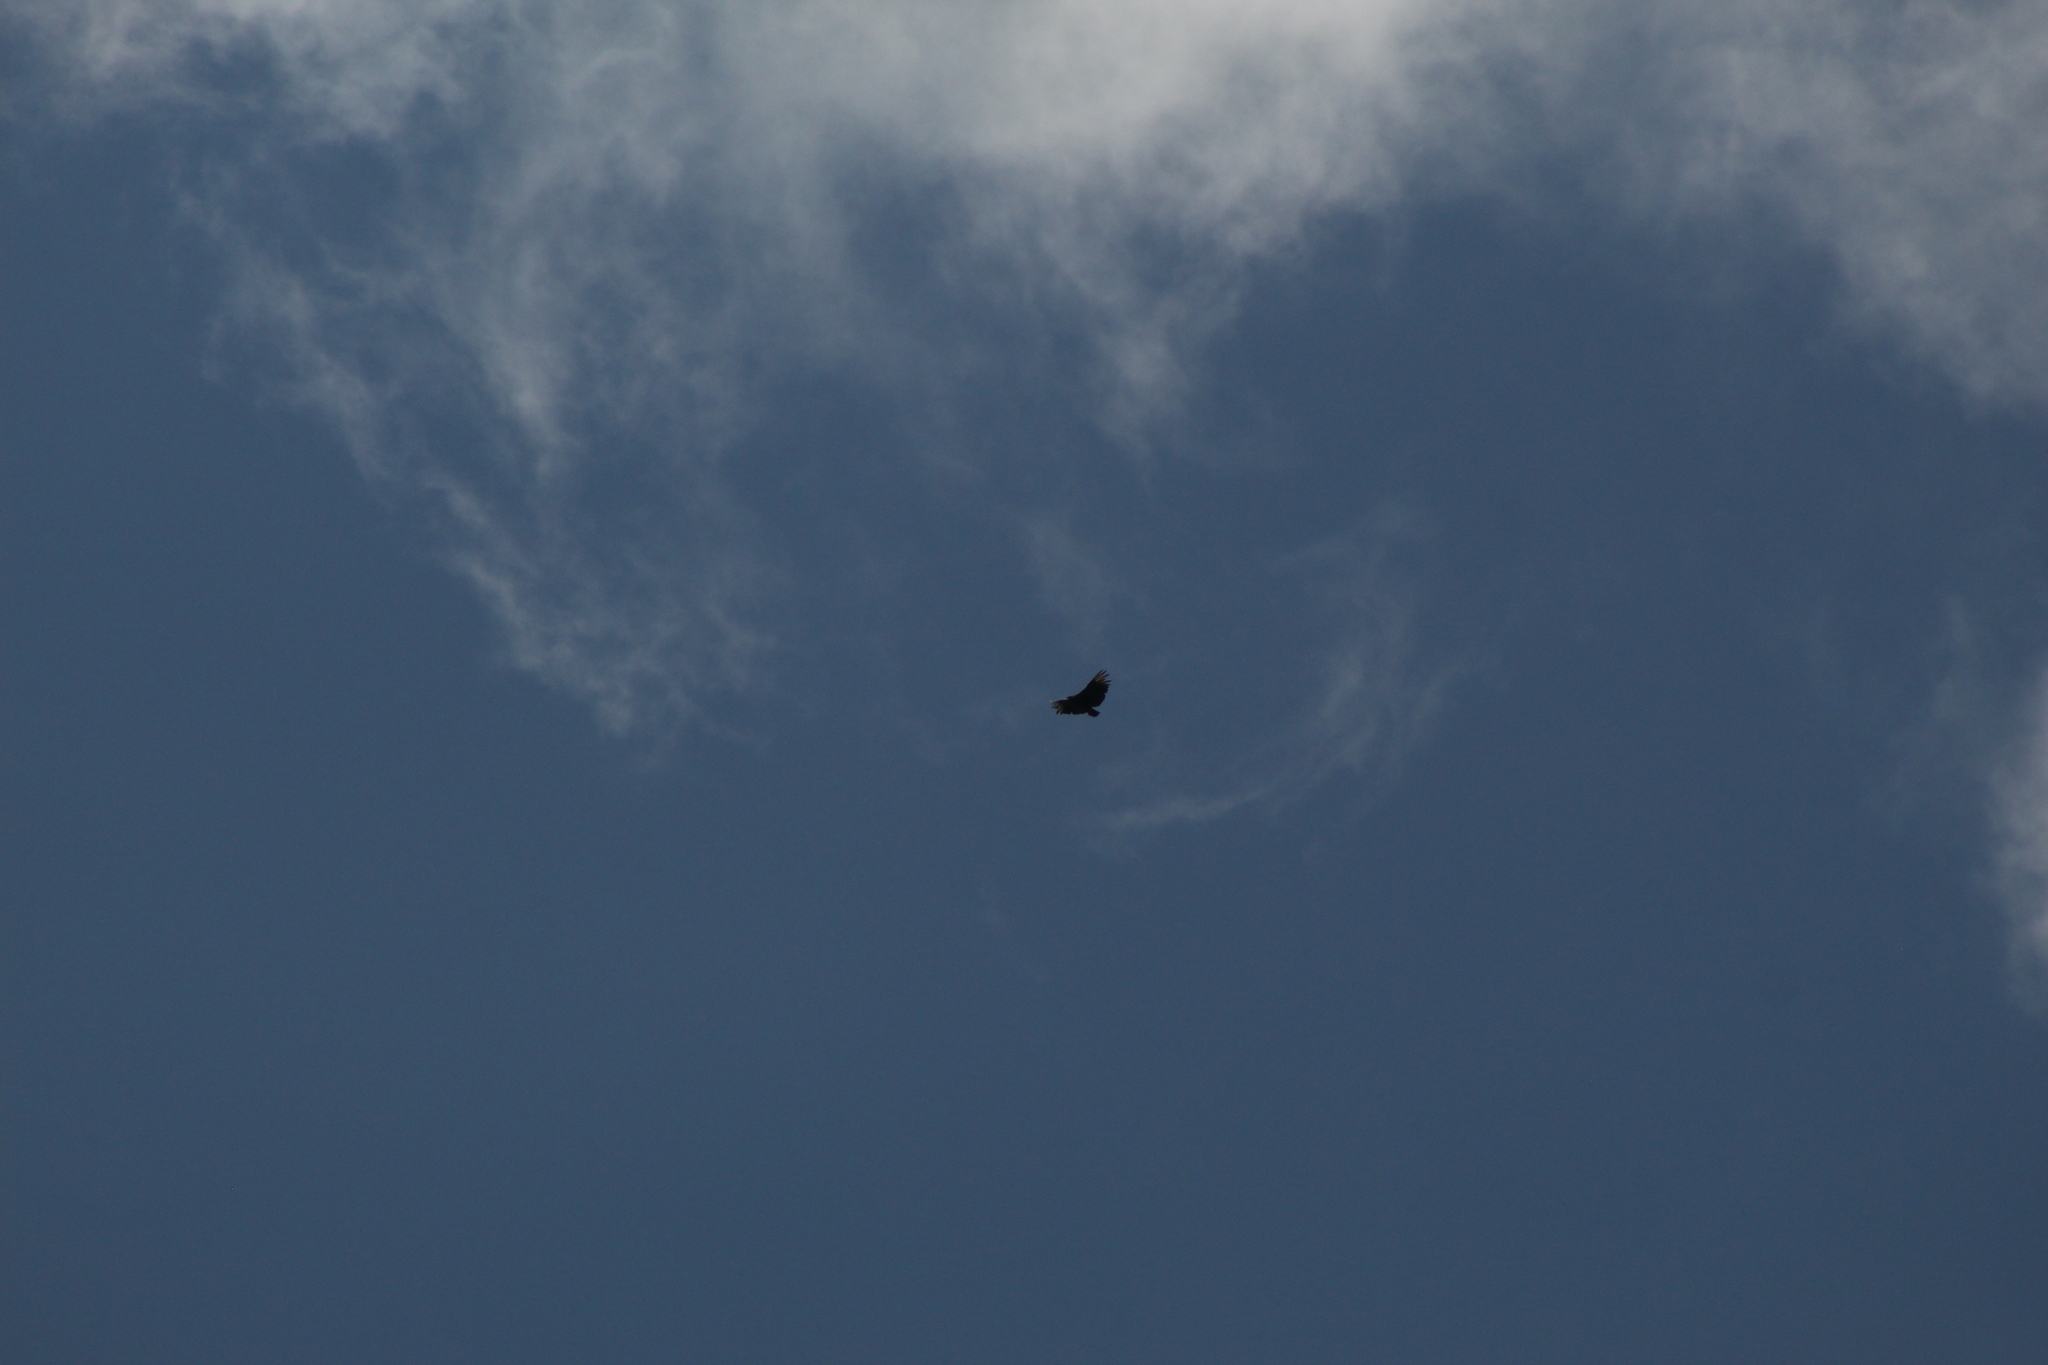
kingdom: Animalia
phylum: Chordata
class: Aves
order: Accipitriformes
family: Cathartidae
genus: Coragyps
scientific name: Coragyps atratus
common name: Black vulture
